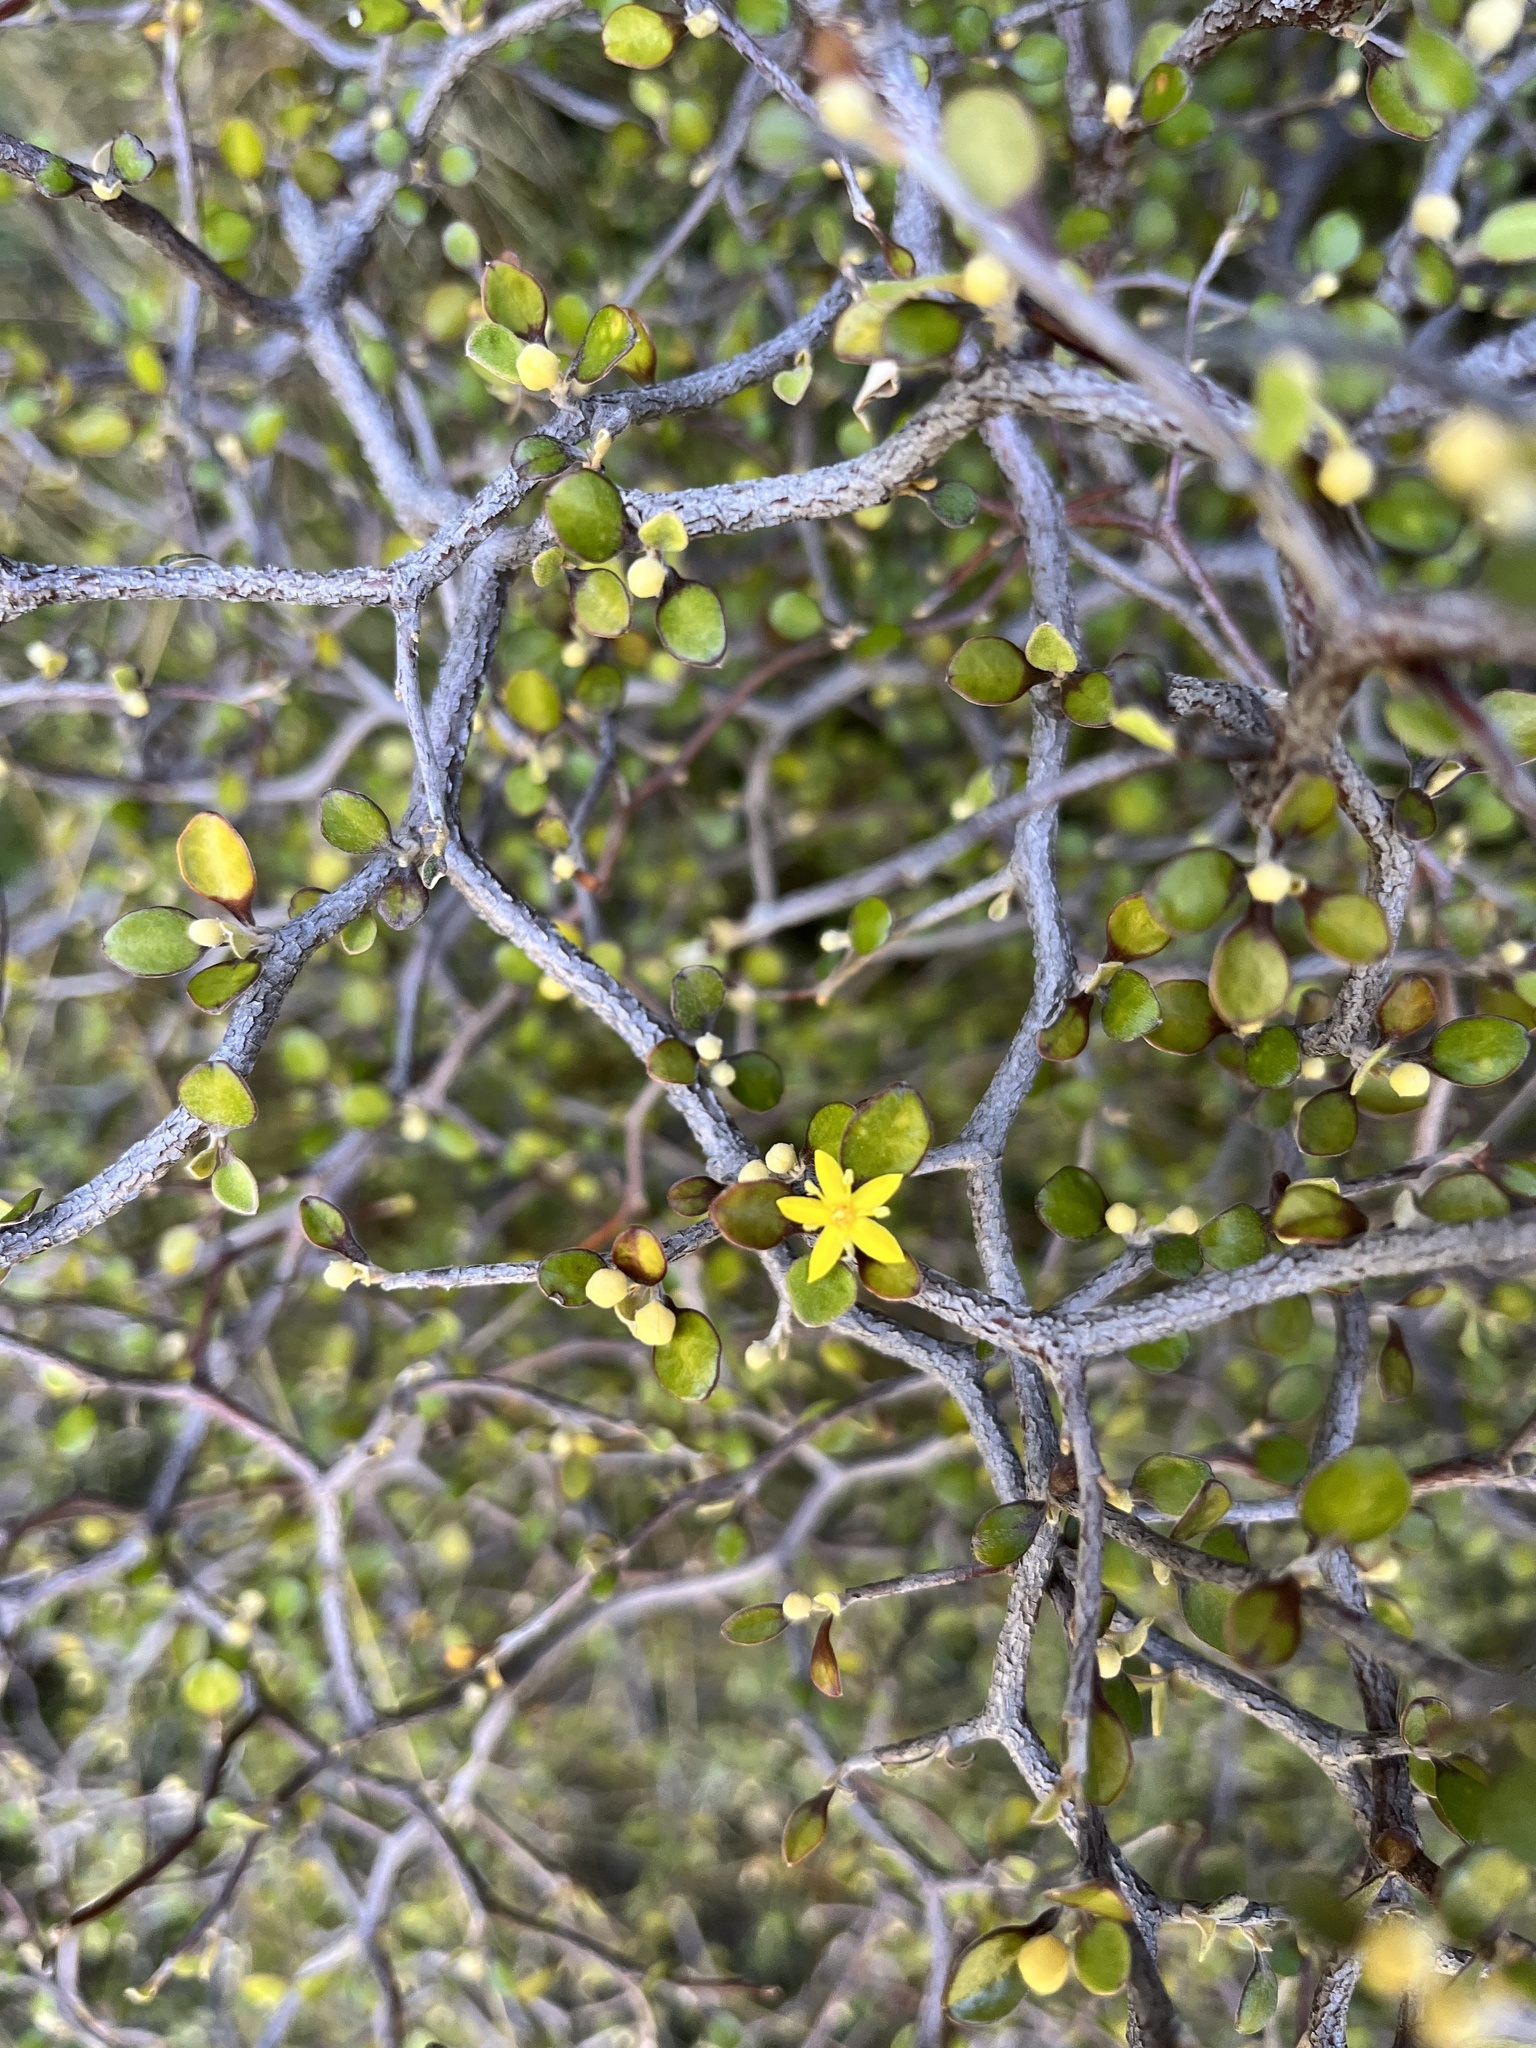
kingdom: Plantae
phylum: Tracheophyta
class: Magnoliopsida
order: Asterales
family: Argophyllaceae
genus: Corokia
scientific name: Corokia cotoneaster
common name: Wire nettingbush
